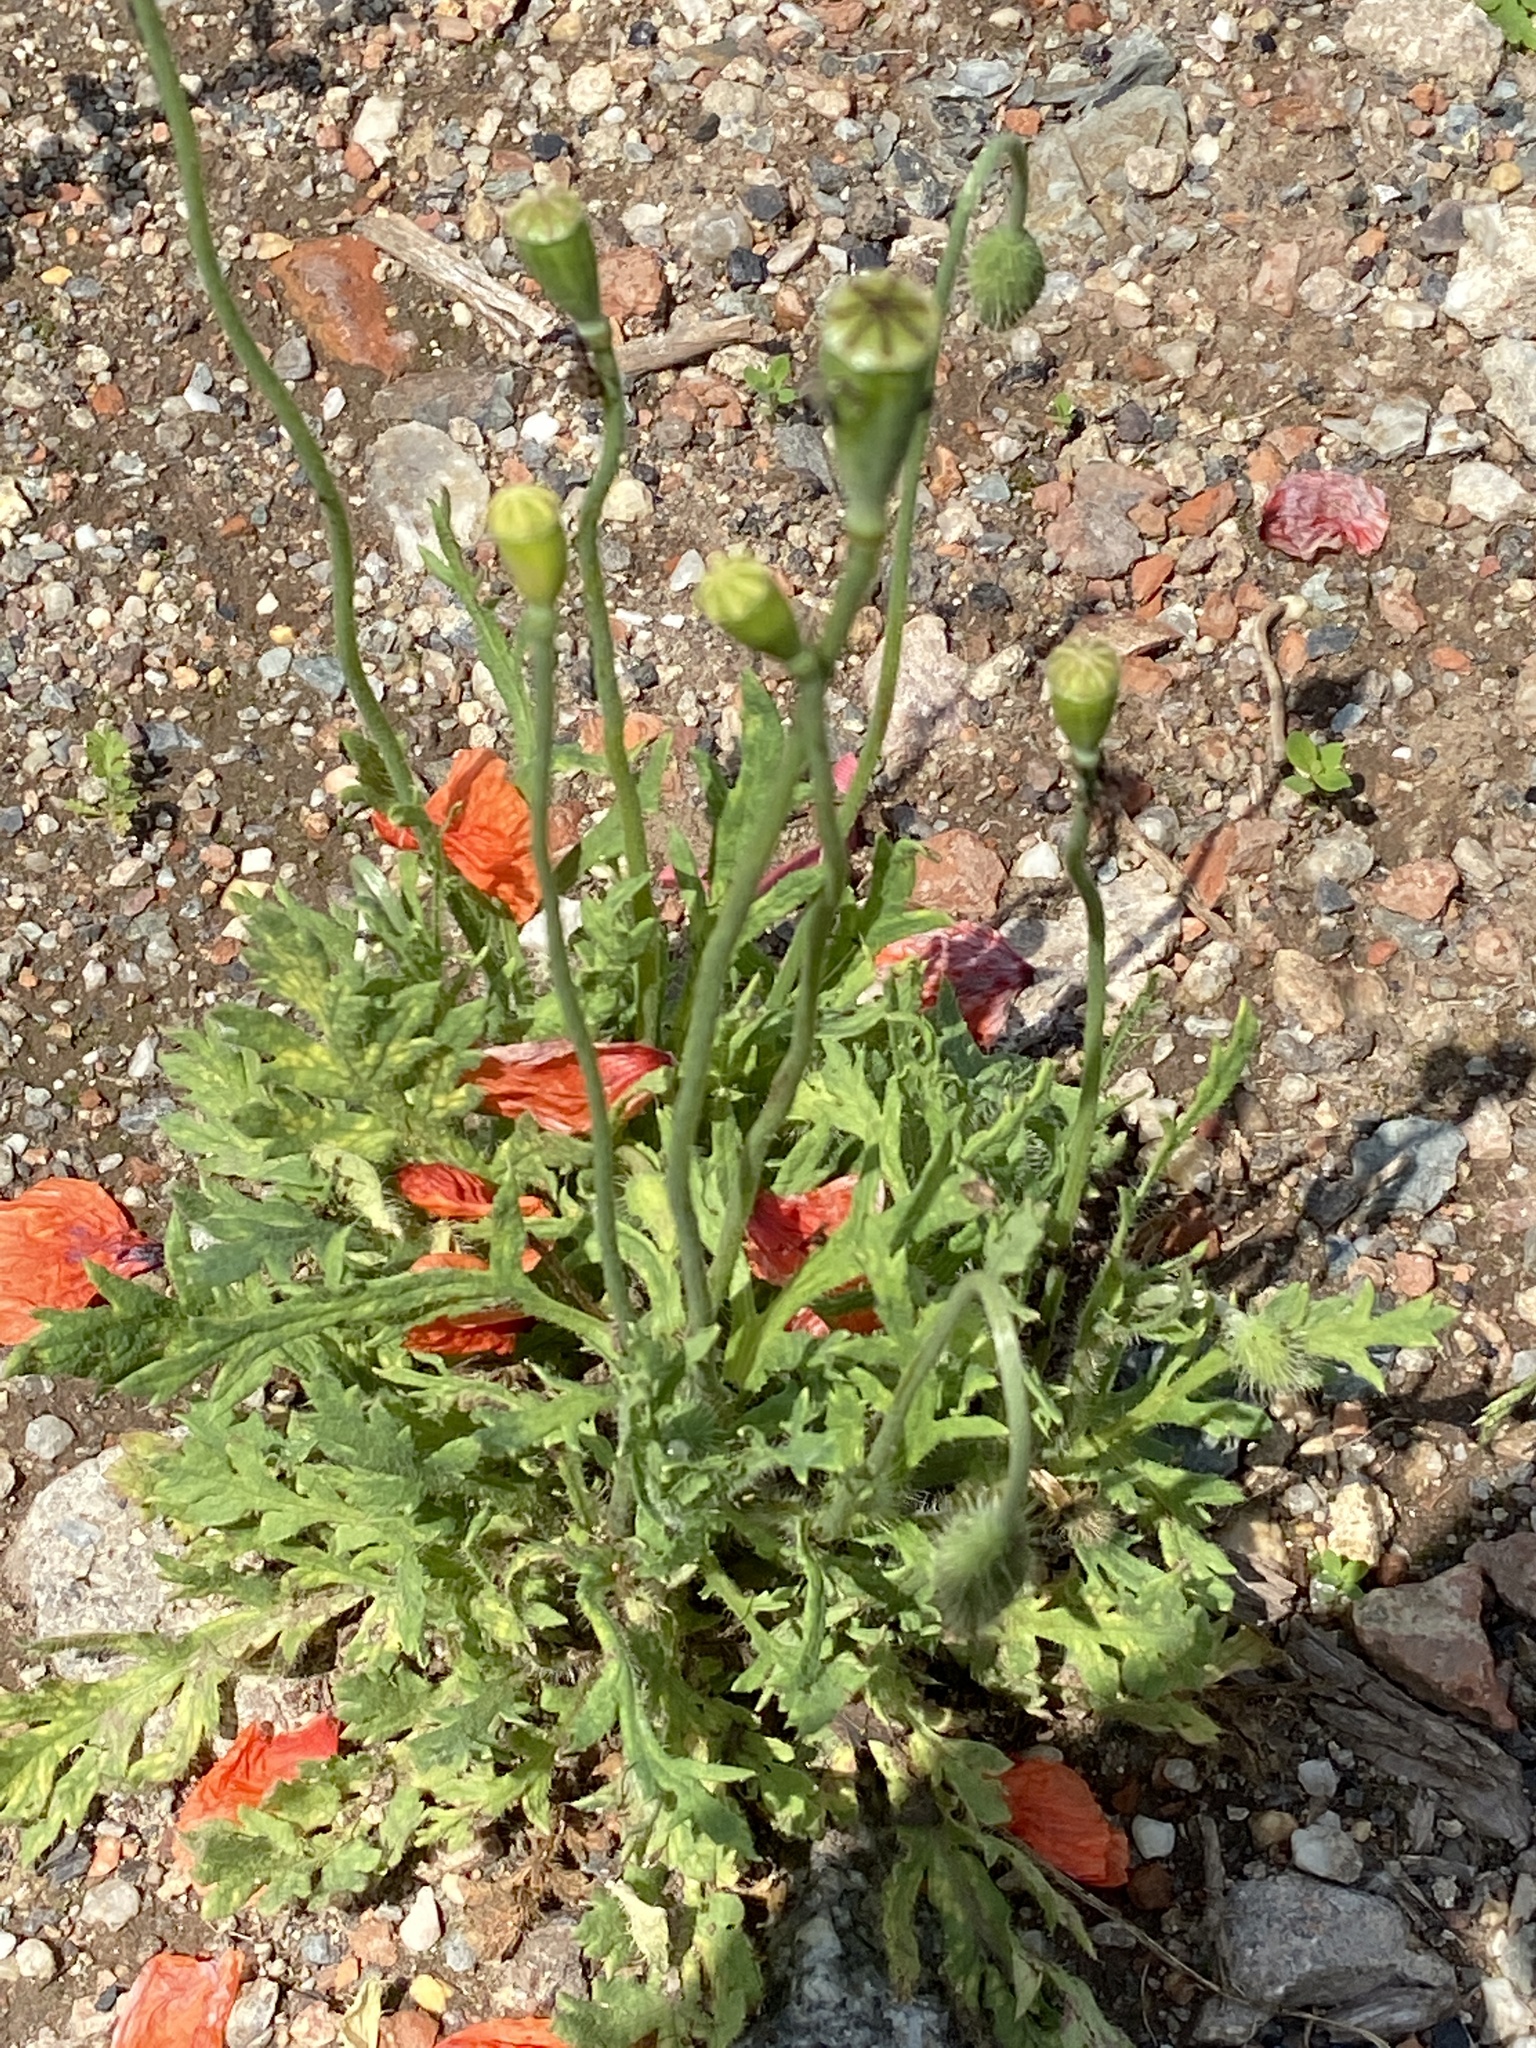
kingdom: Plantae
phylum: Tracheophyta
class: Magnoliopsida
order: Ranunculales
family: Papaveraceae
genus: Papaver
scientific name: Papaver dubium
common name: Long-headed poppy
